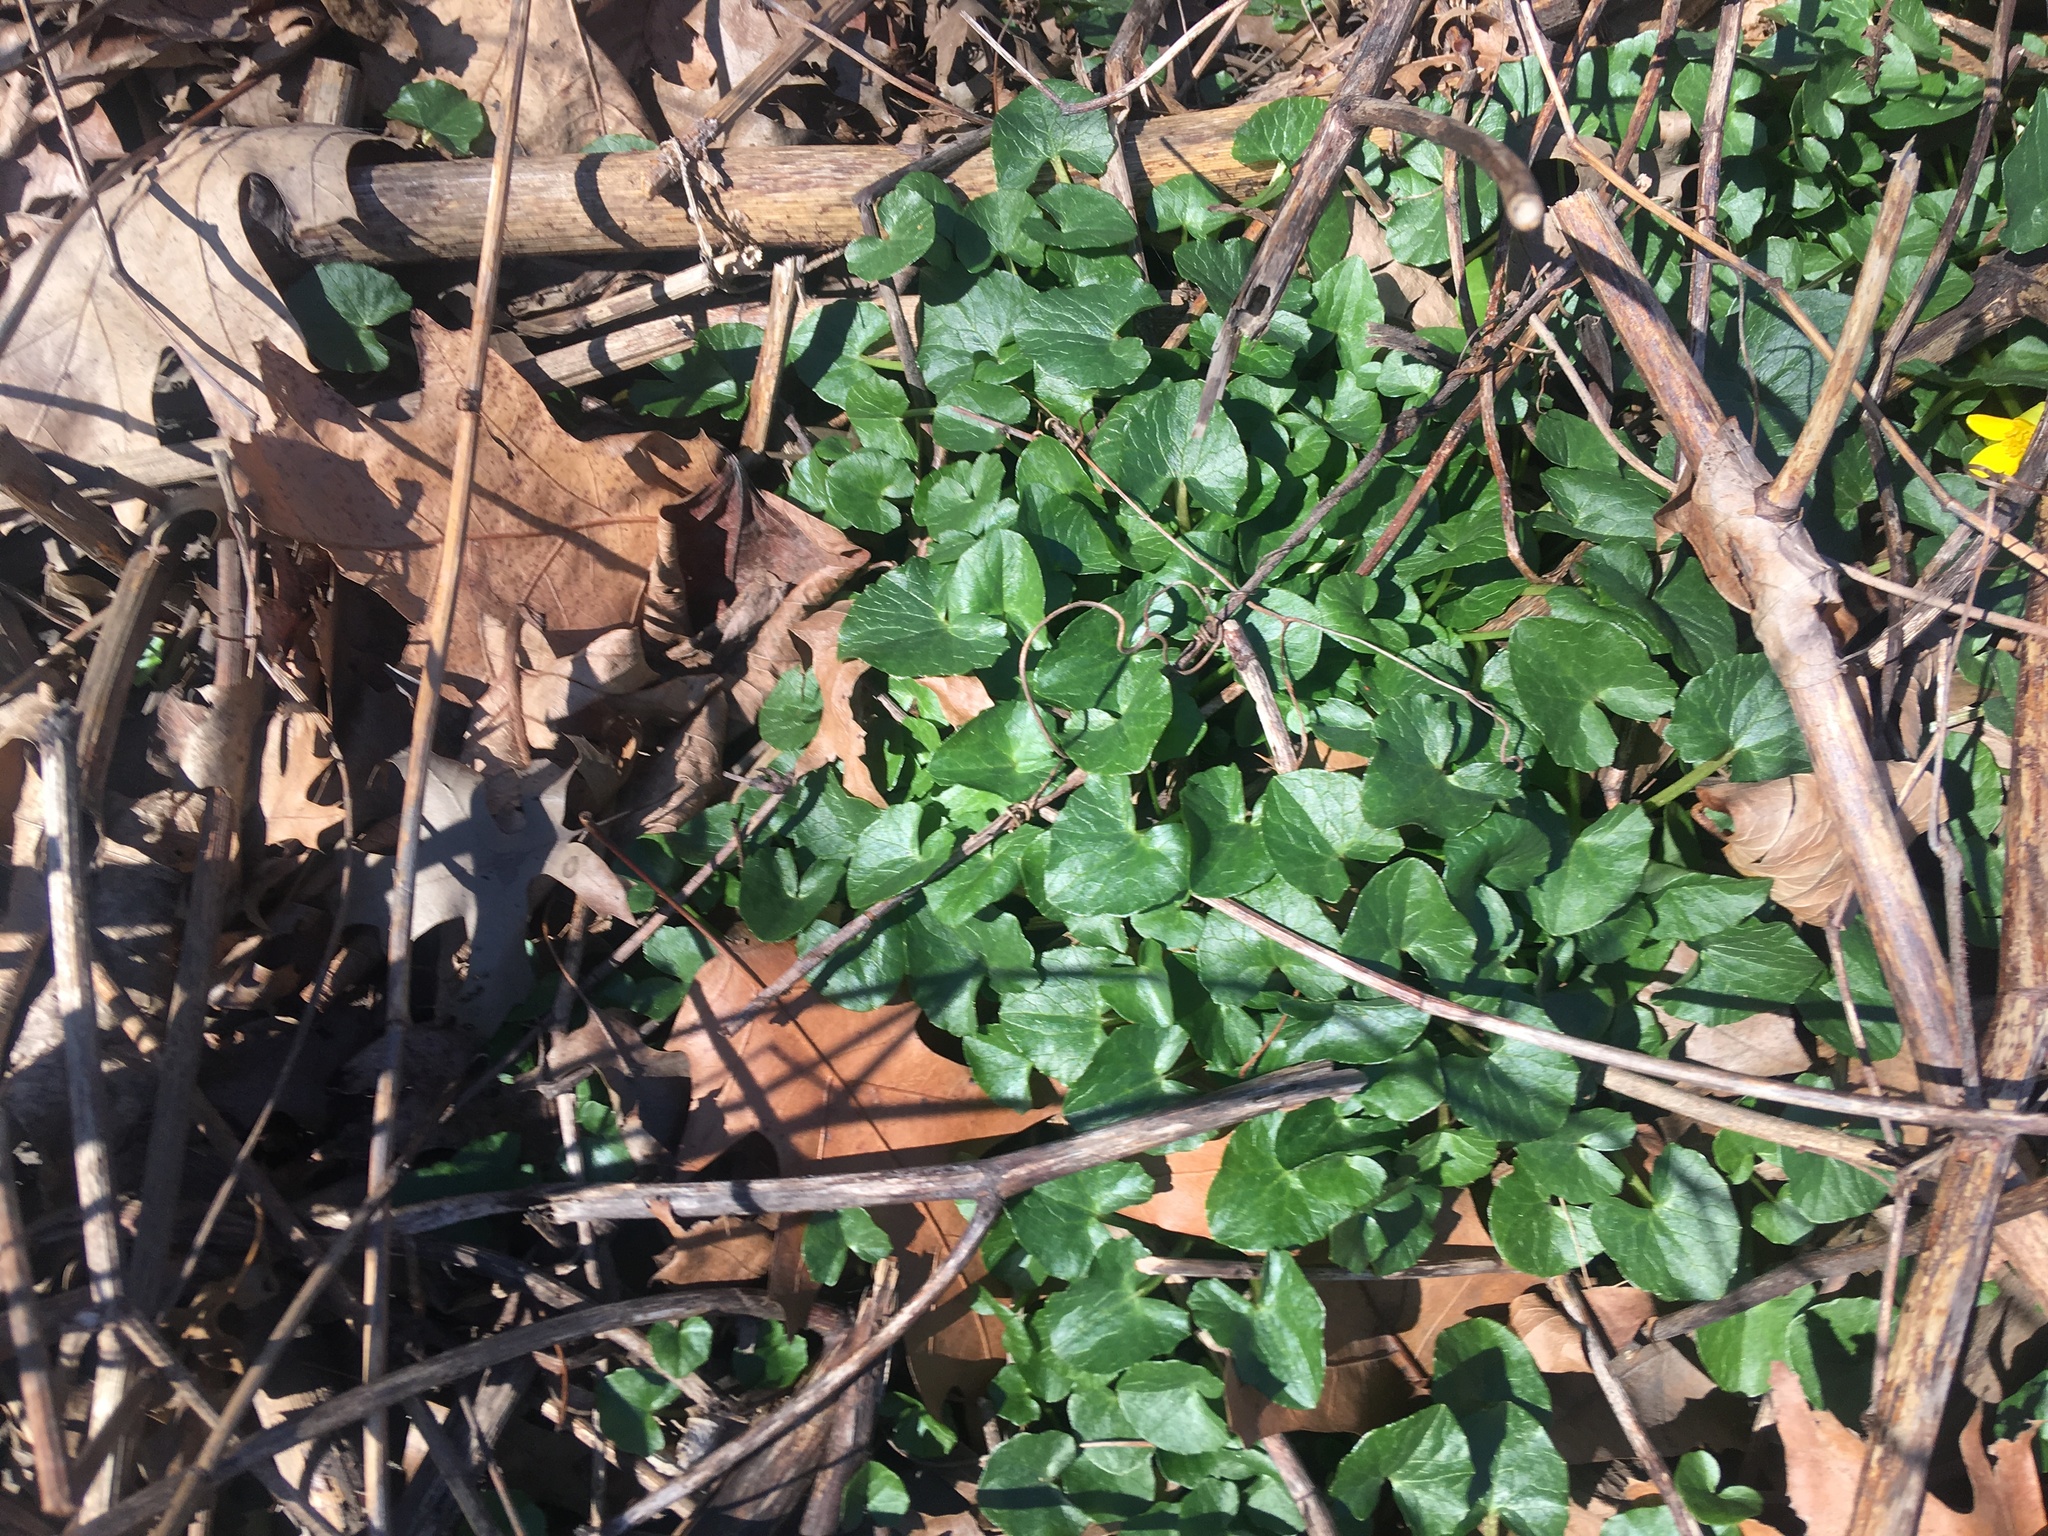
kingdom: Plantae
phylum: Tracheophyta
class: Magnoliopsida
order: Ranunculales
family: Ranunculaceae
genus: Ficaria
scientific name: Ficaria verna
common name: Lesser celandine
